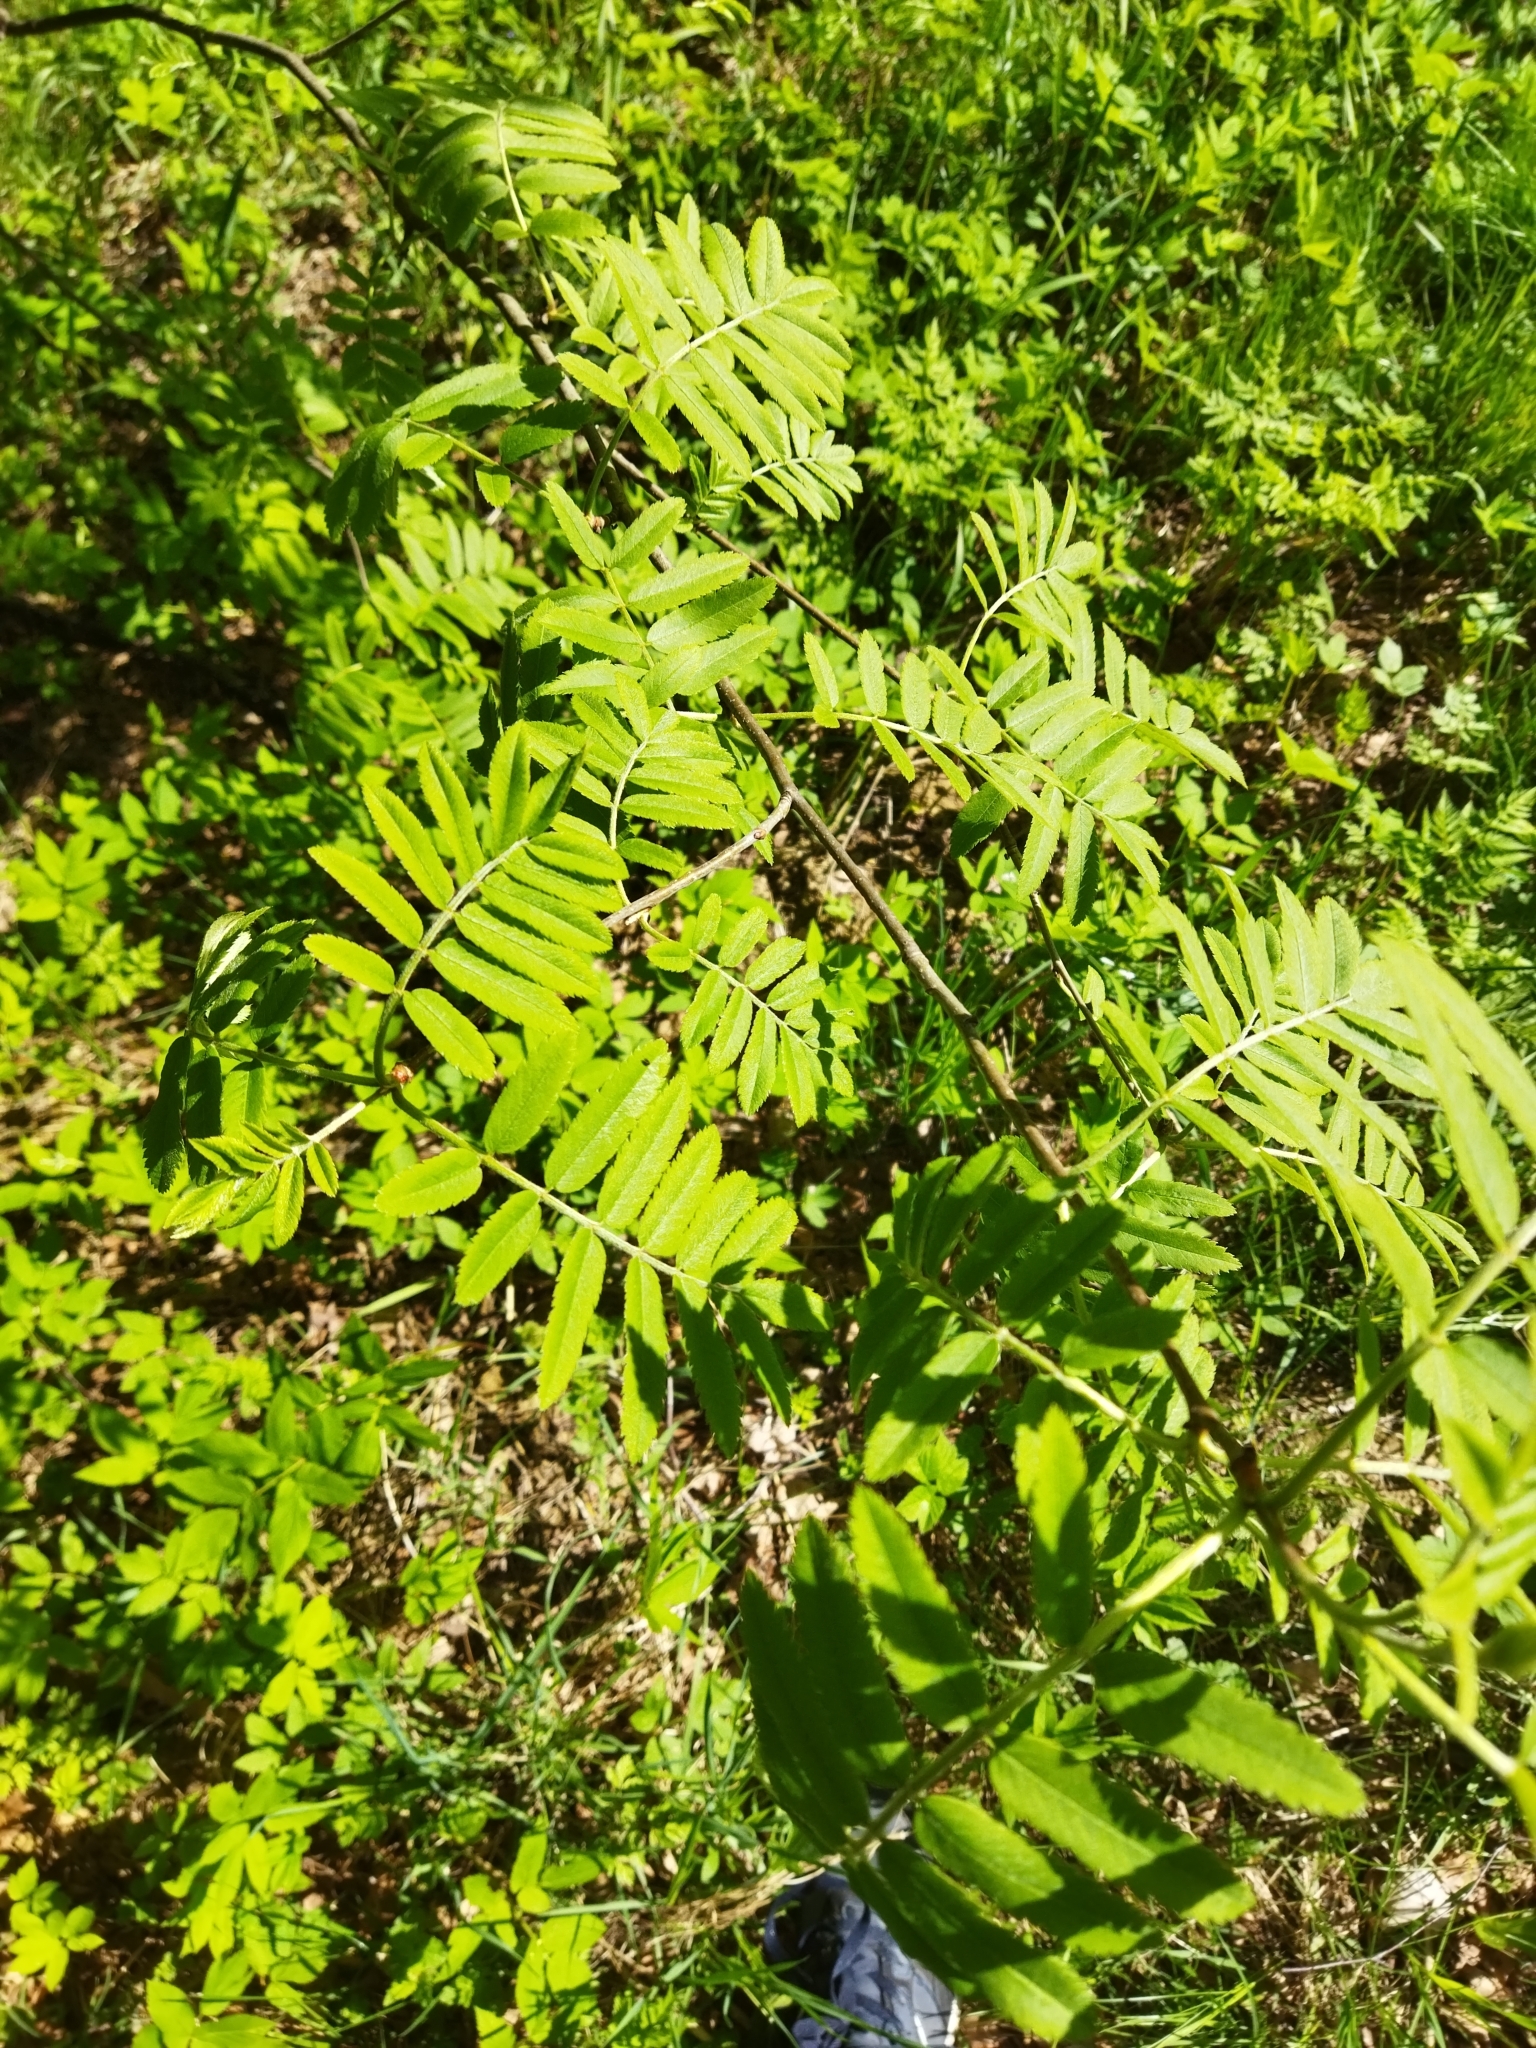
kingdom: Plantae
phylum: Tracheophyta
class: Magnoliopsida
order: Rosales
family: Rosaceae
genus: Sorbus
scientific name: Sorbus aucuparia
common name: Rowan
